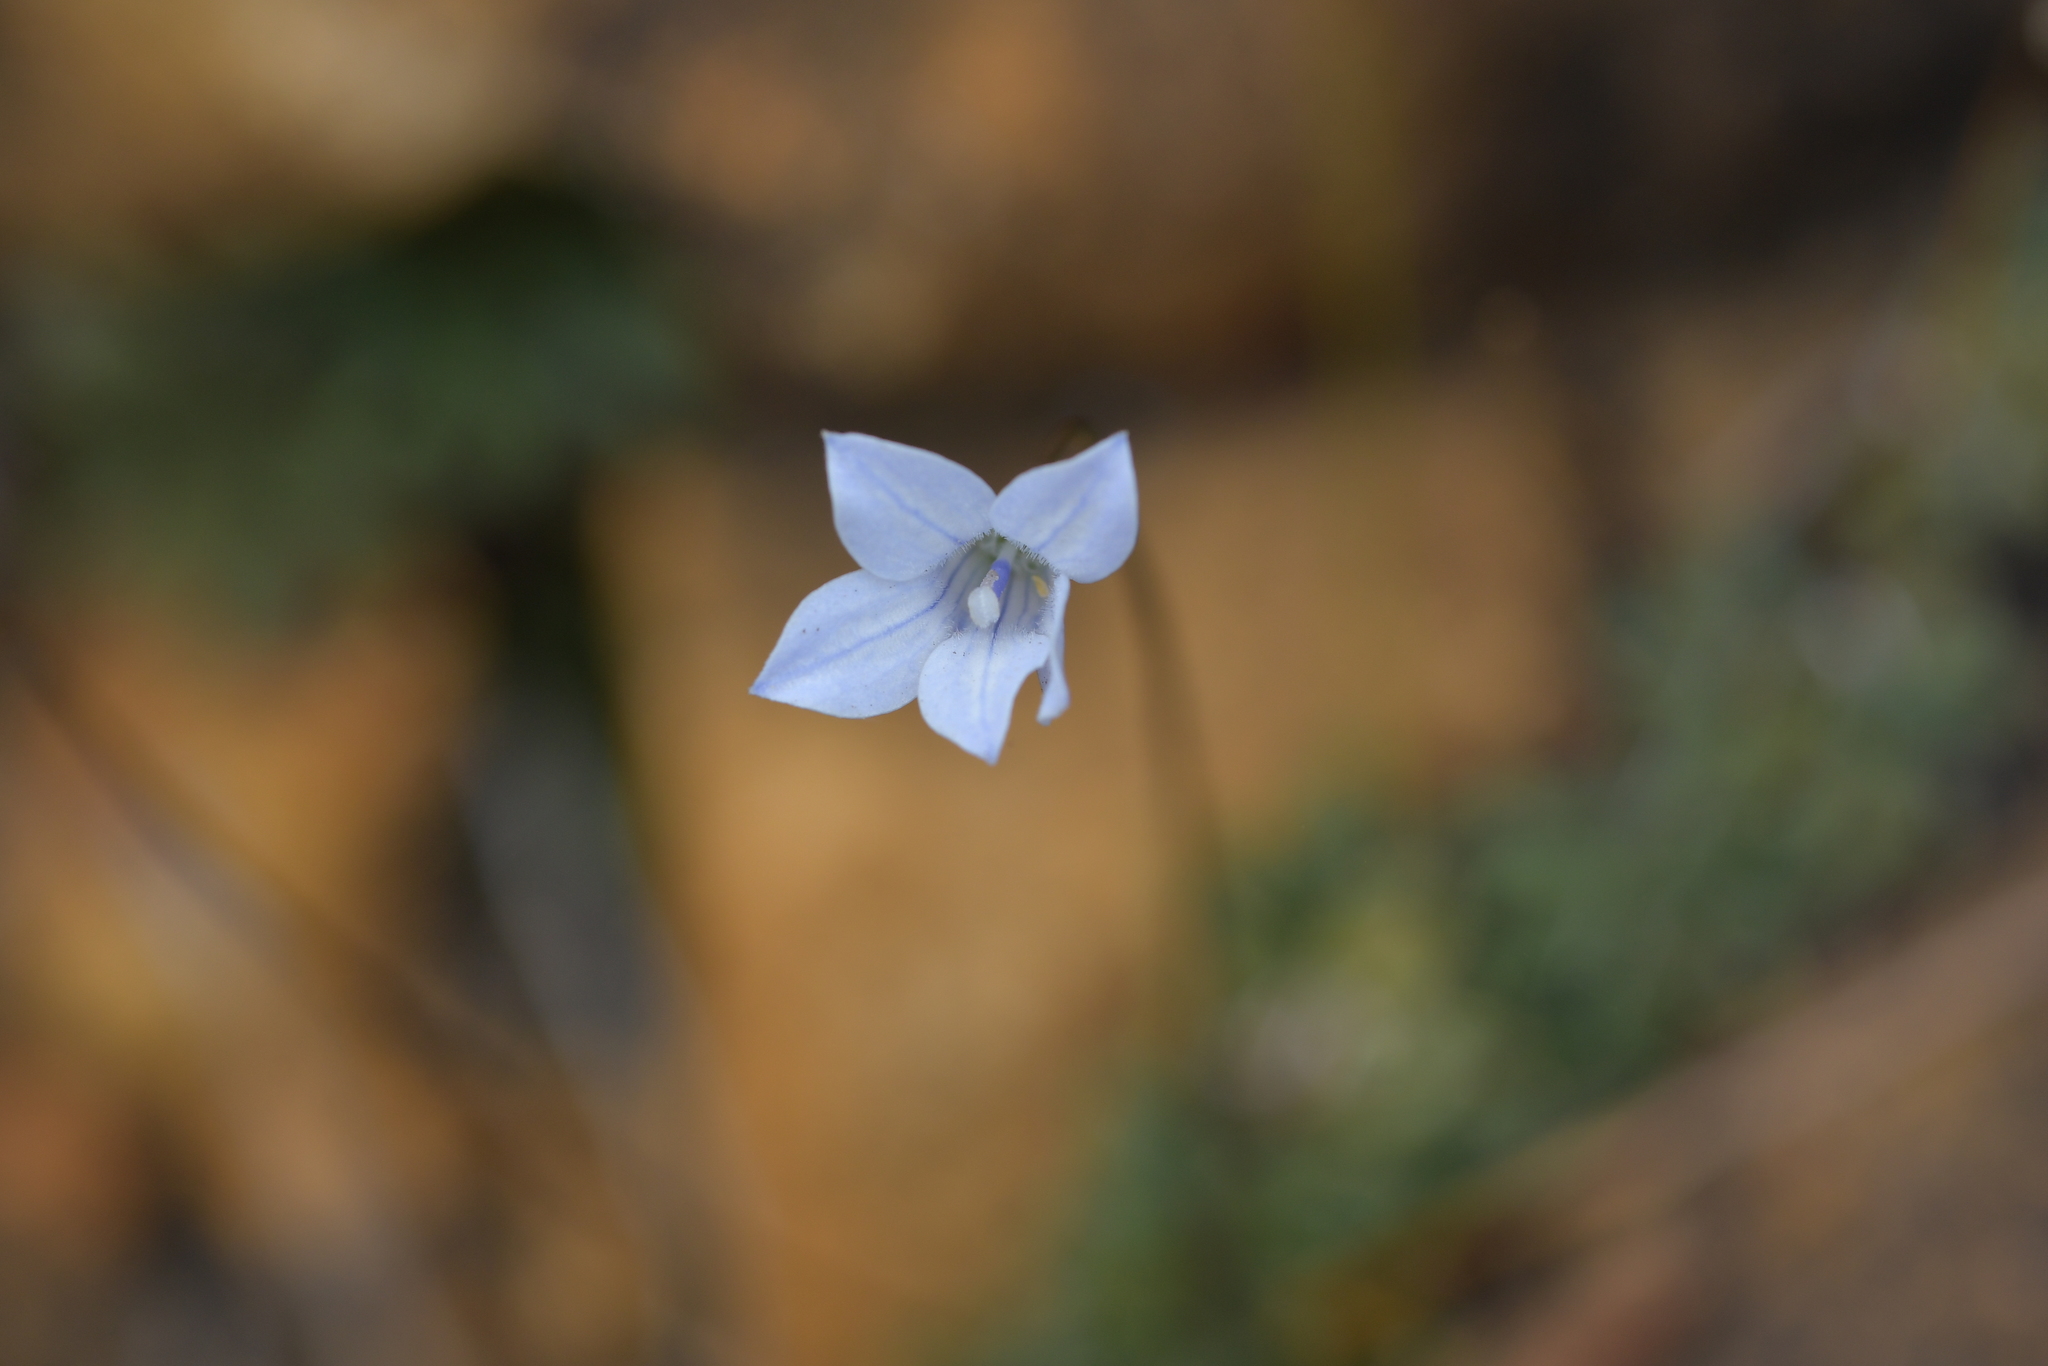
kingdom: Plantae
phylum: Tracheophyta
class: Magnoliopsida
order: Asterales
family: Campanulaceae
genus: Wahlenbergia
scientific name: Wahlenbergia albomarginata
